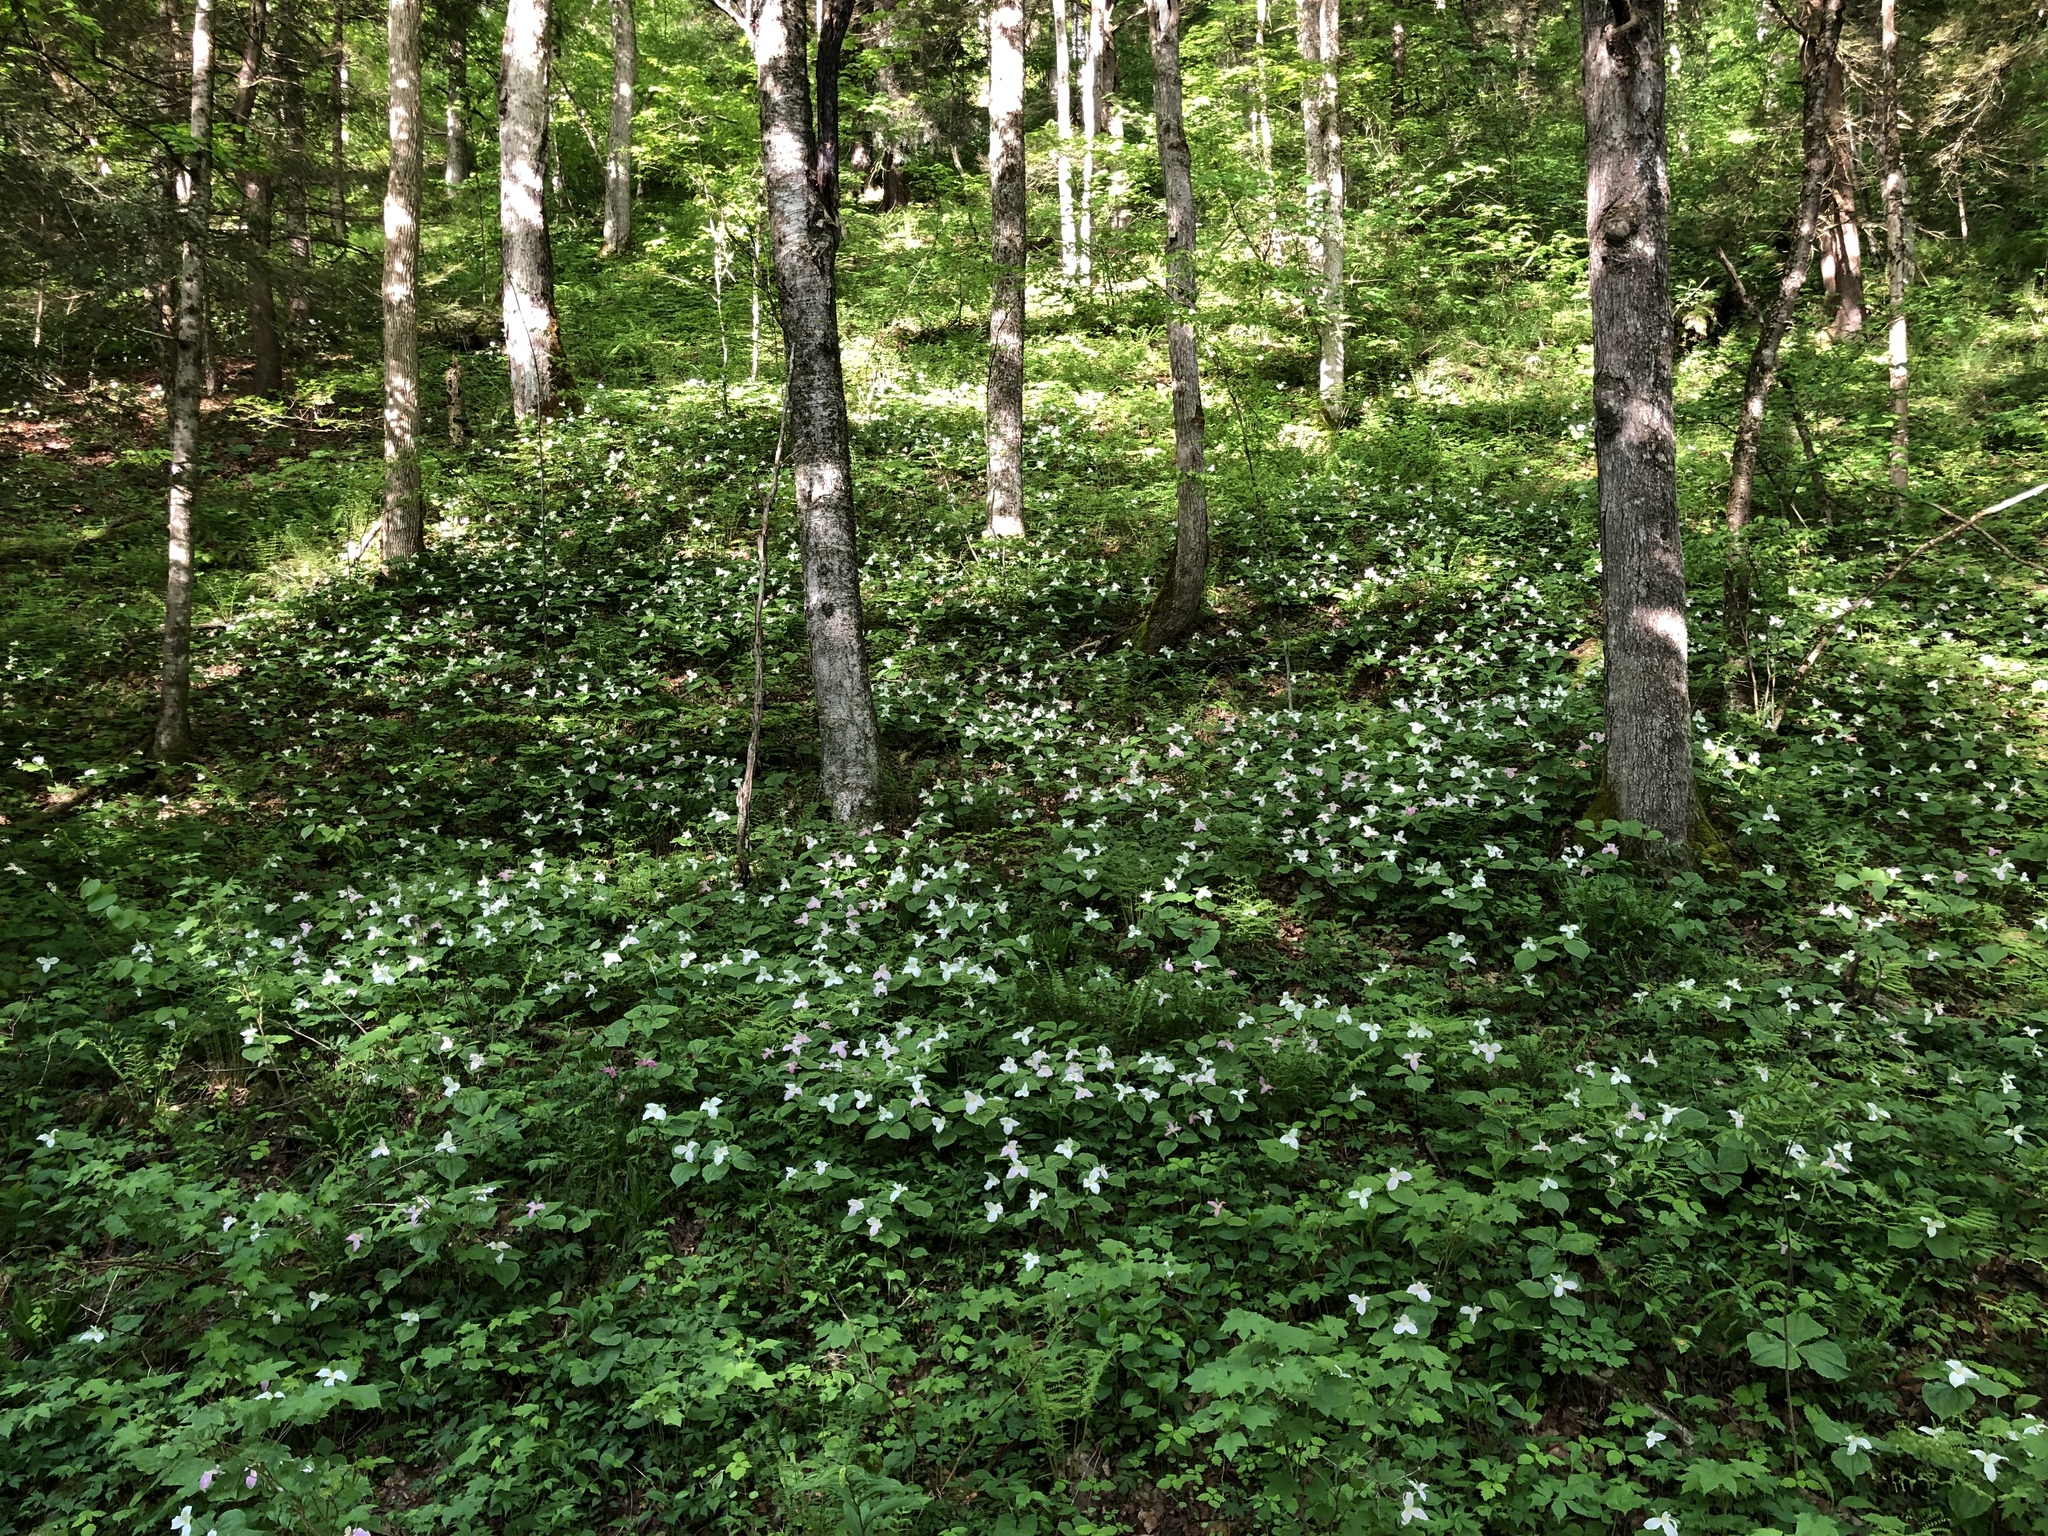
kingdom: Plantae
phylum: Tracheophyta
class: Liliopsida
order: Liliales
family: Melanthiaceae
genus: Trillium
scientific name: Trillium grandiflorum
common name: Great white trillium
